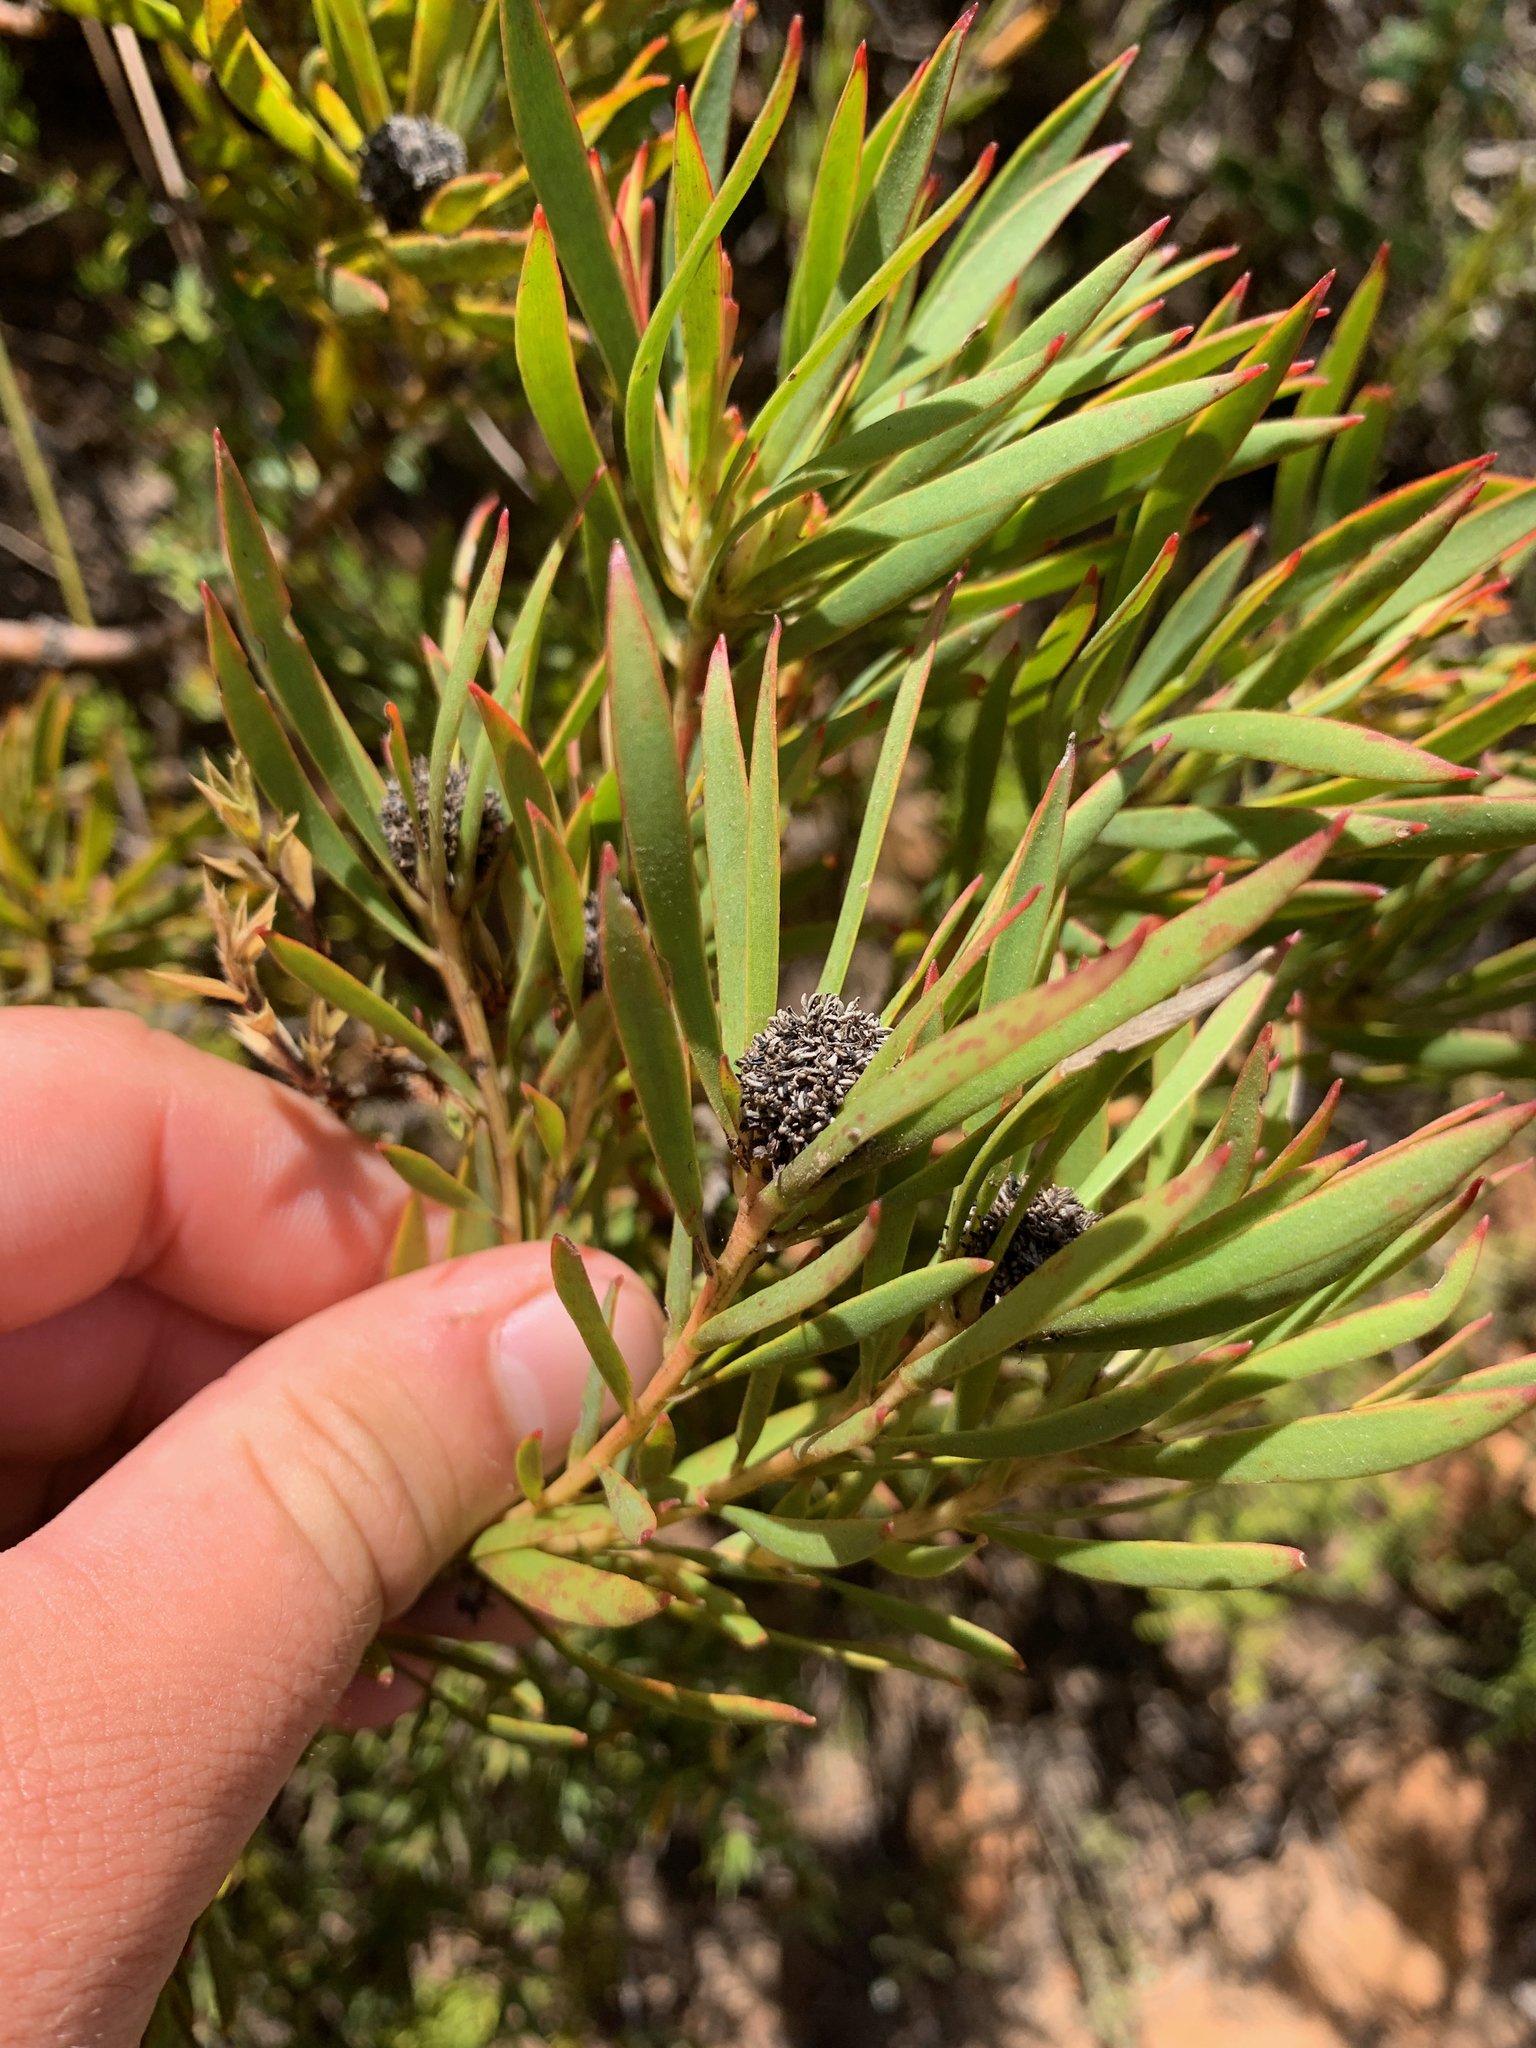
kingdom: Plantae
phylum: Tracheophyta
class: Magnoliopsida
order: Proteales
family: Proteaceae
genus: Leucadendron
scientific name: Leucadendron salignum
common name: Common sunshine conebush
